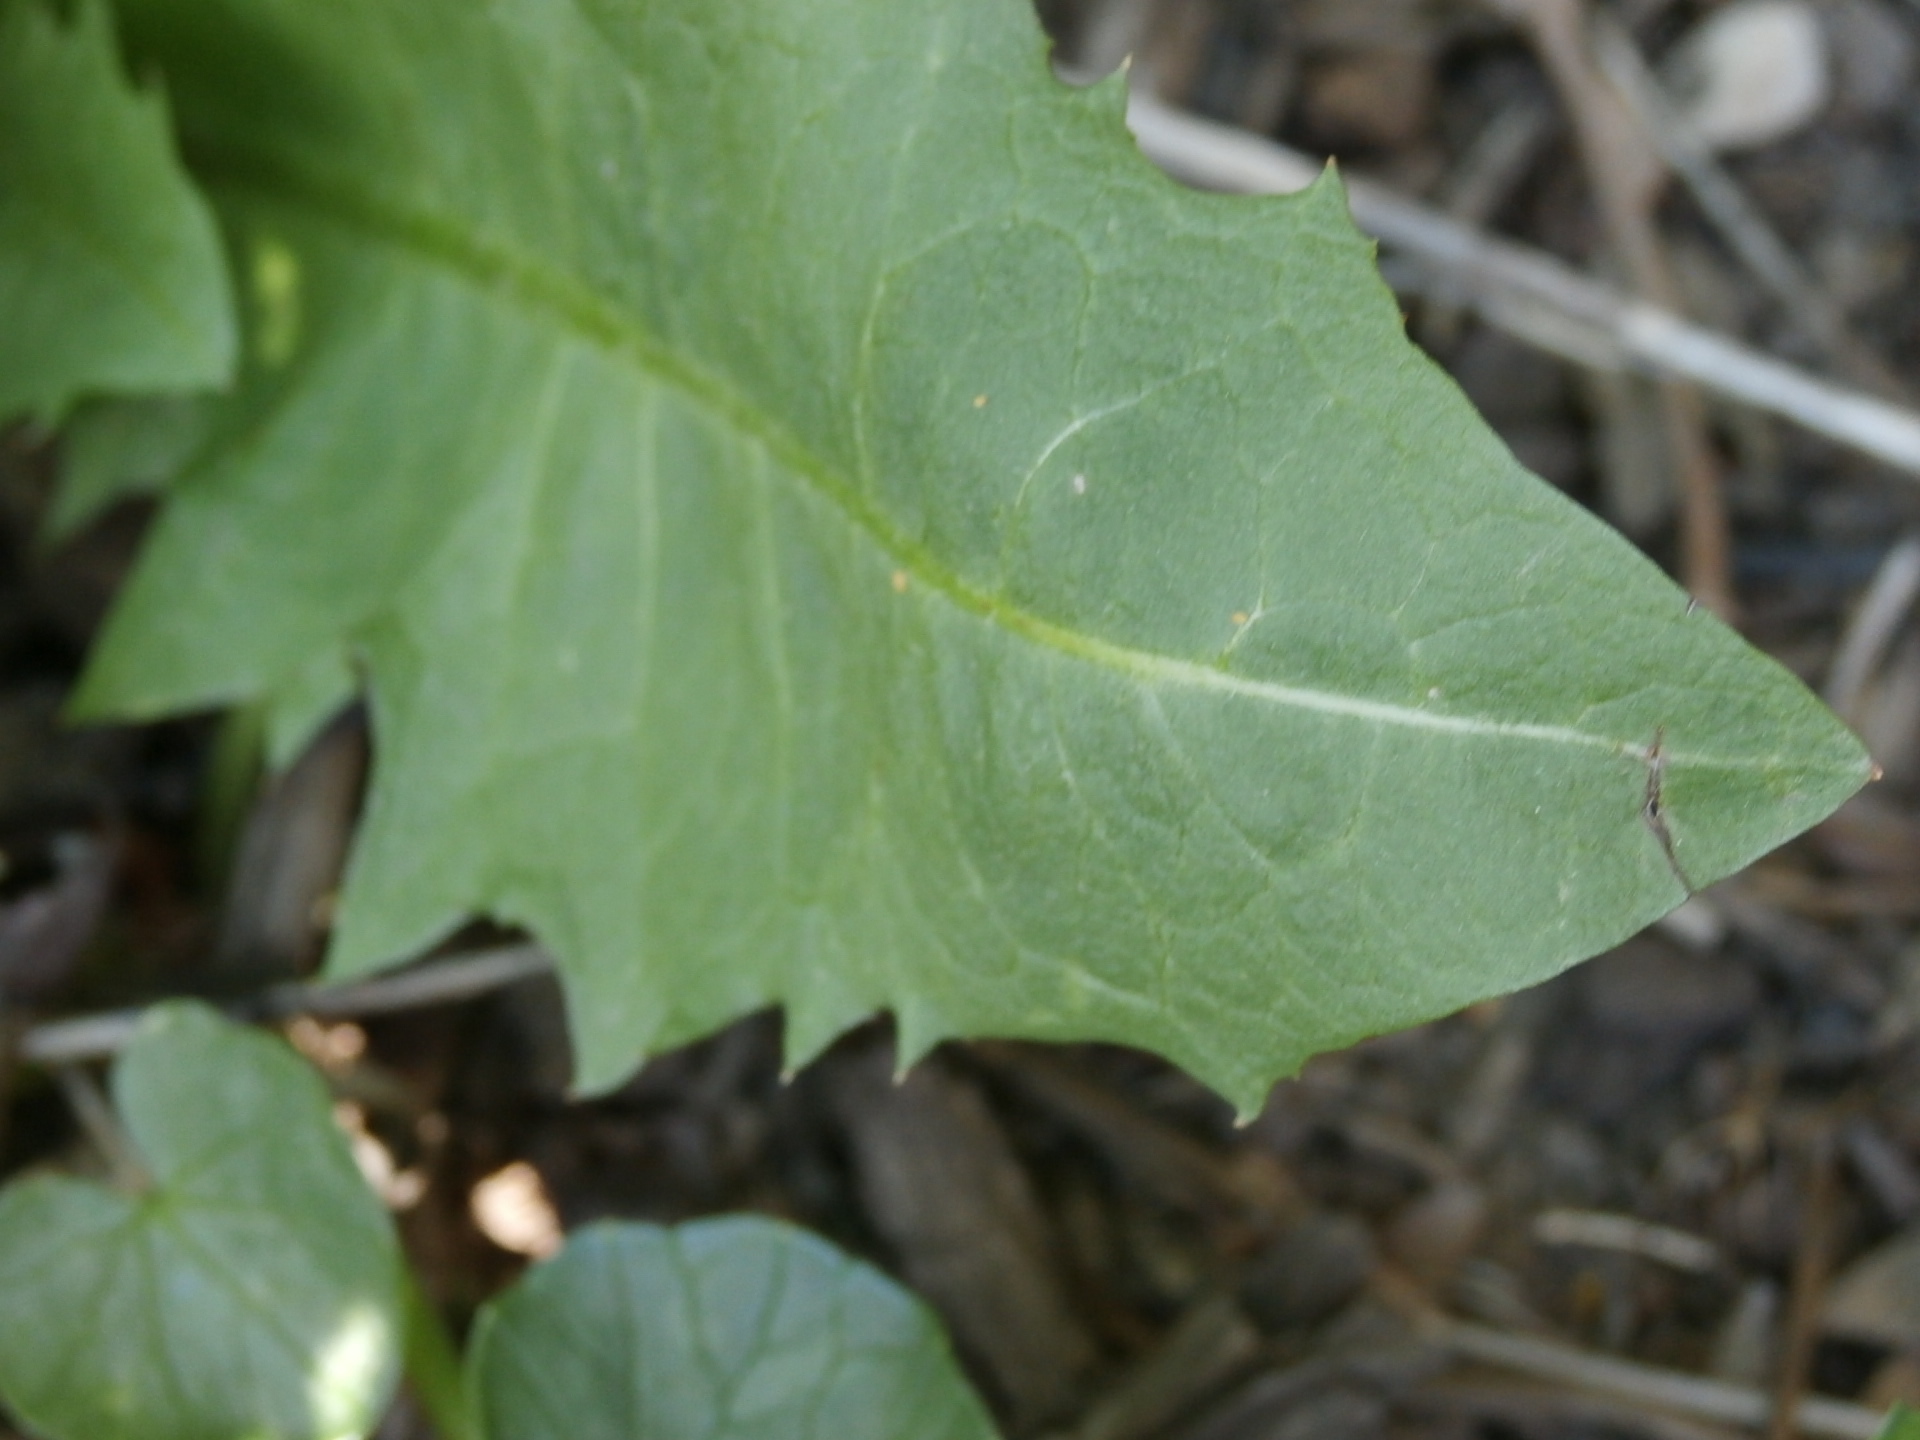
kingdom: Plantae
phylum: Tracheophyta
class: Magnoliopsida
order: Asterales
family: Asteraceae
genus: Taraxacum
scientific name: Taraxacum officinale
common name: Common dandelion
